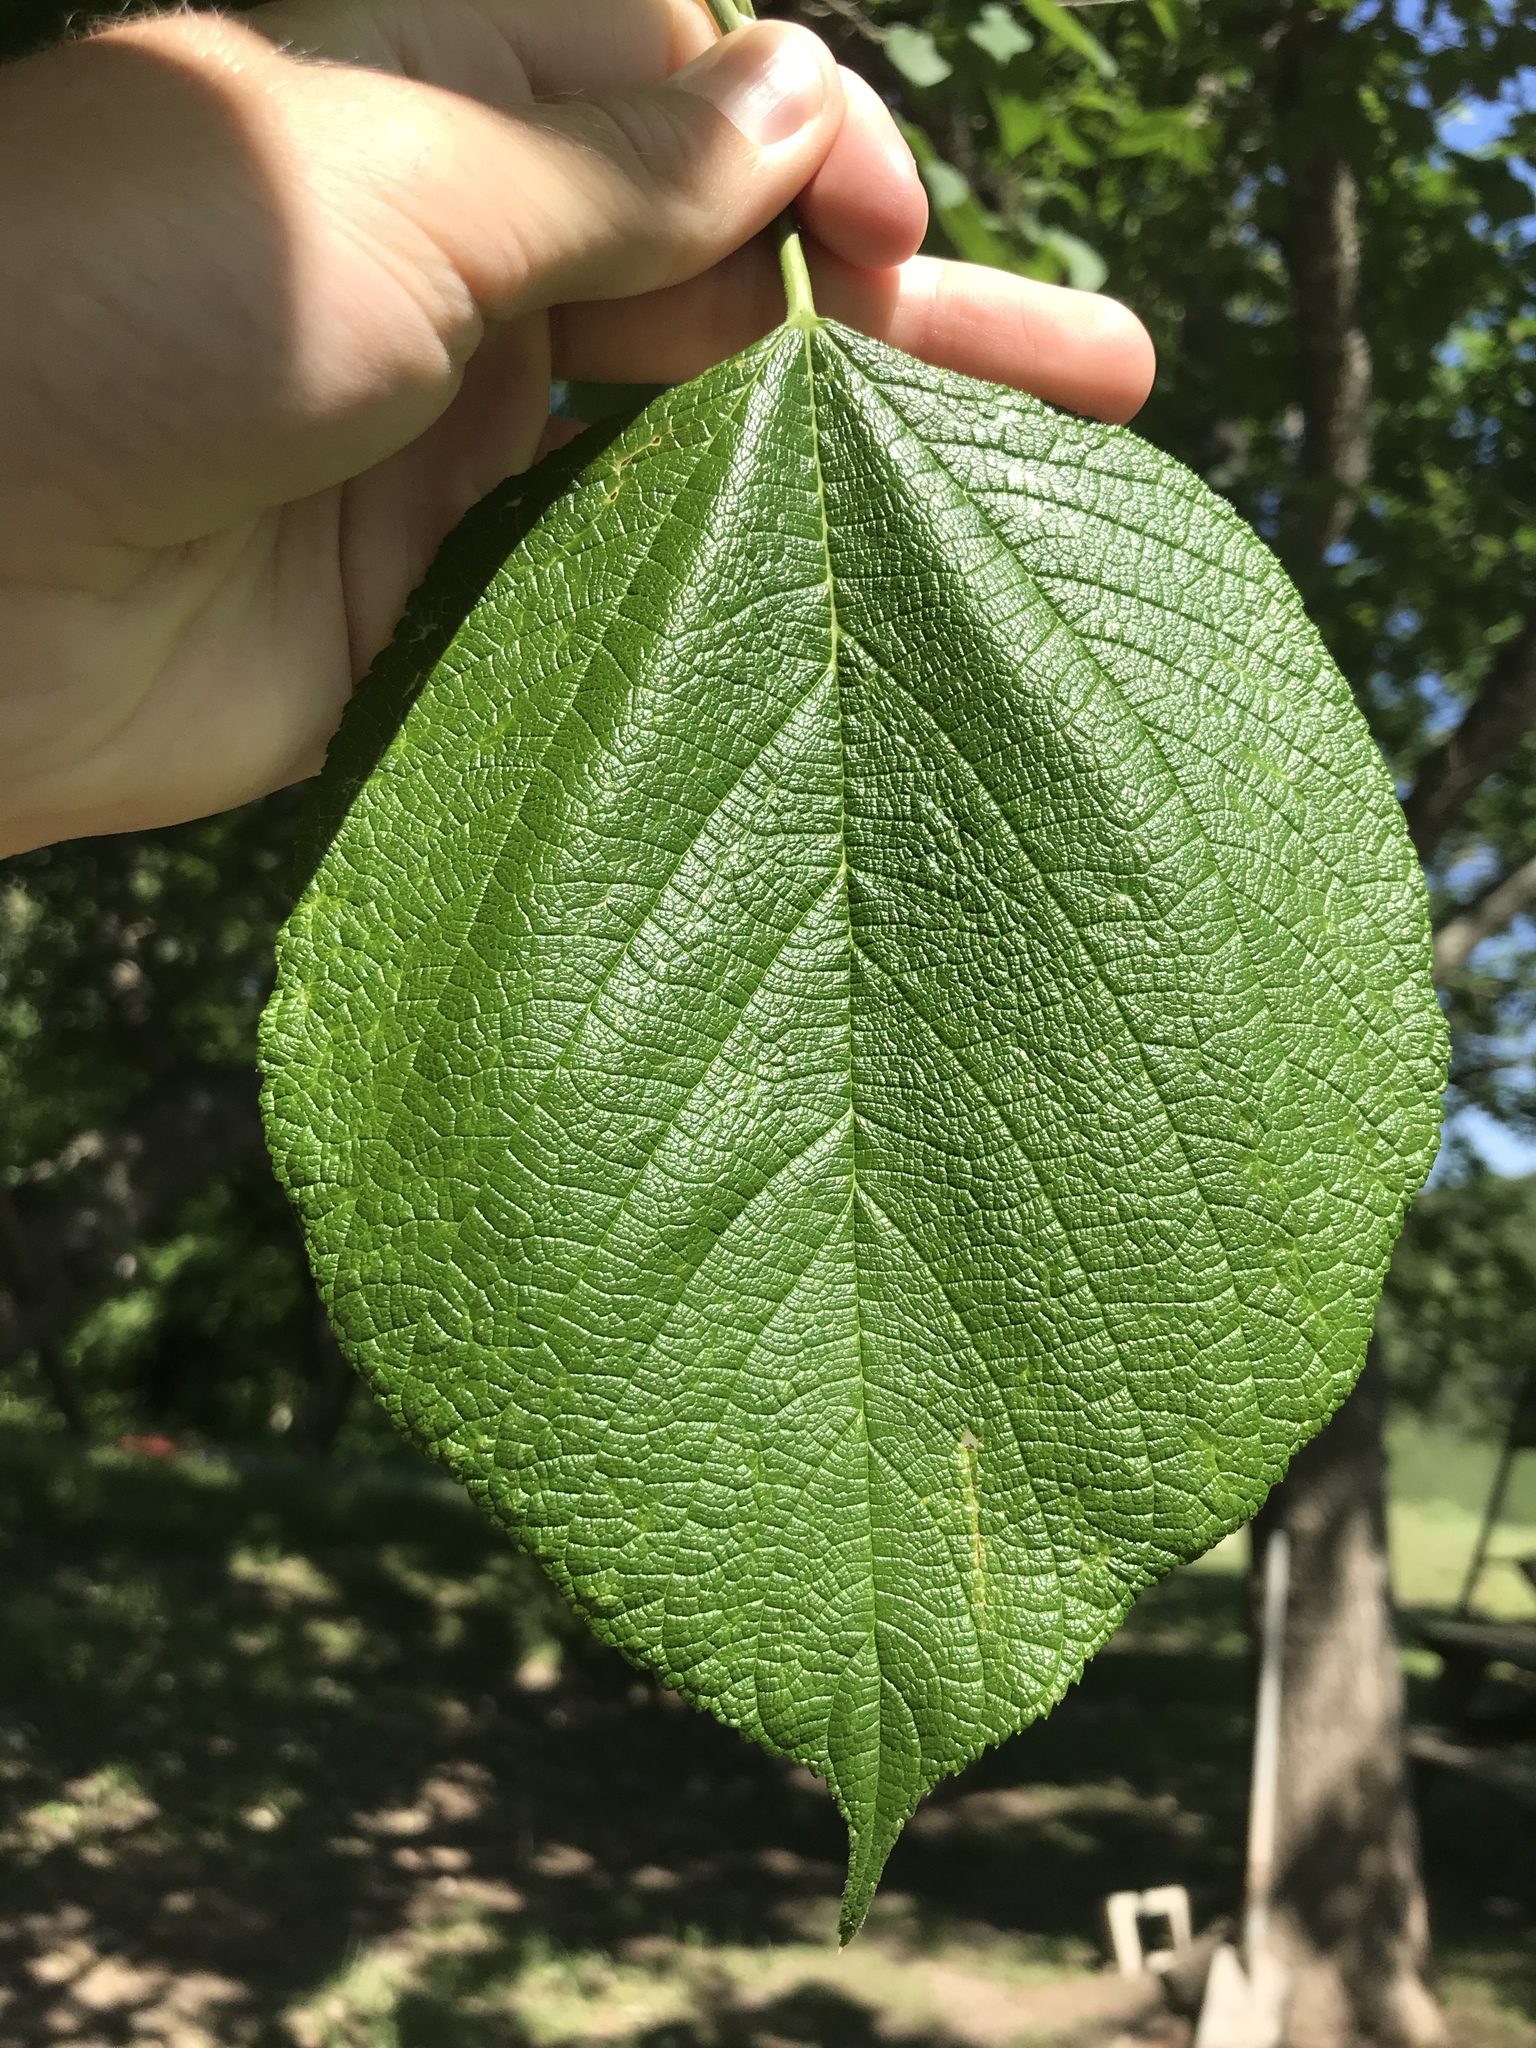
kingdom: Plantae
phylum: Tracheophyta
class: Magnoliopsida
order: Rosales
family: Moraceae
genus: Morus
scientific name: Morus rubra
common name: Red mulberry
